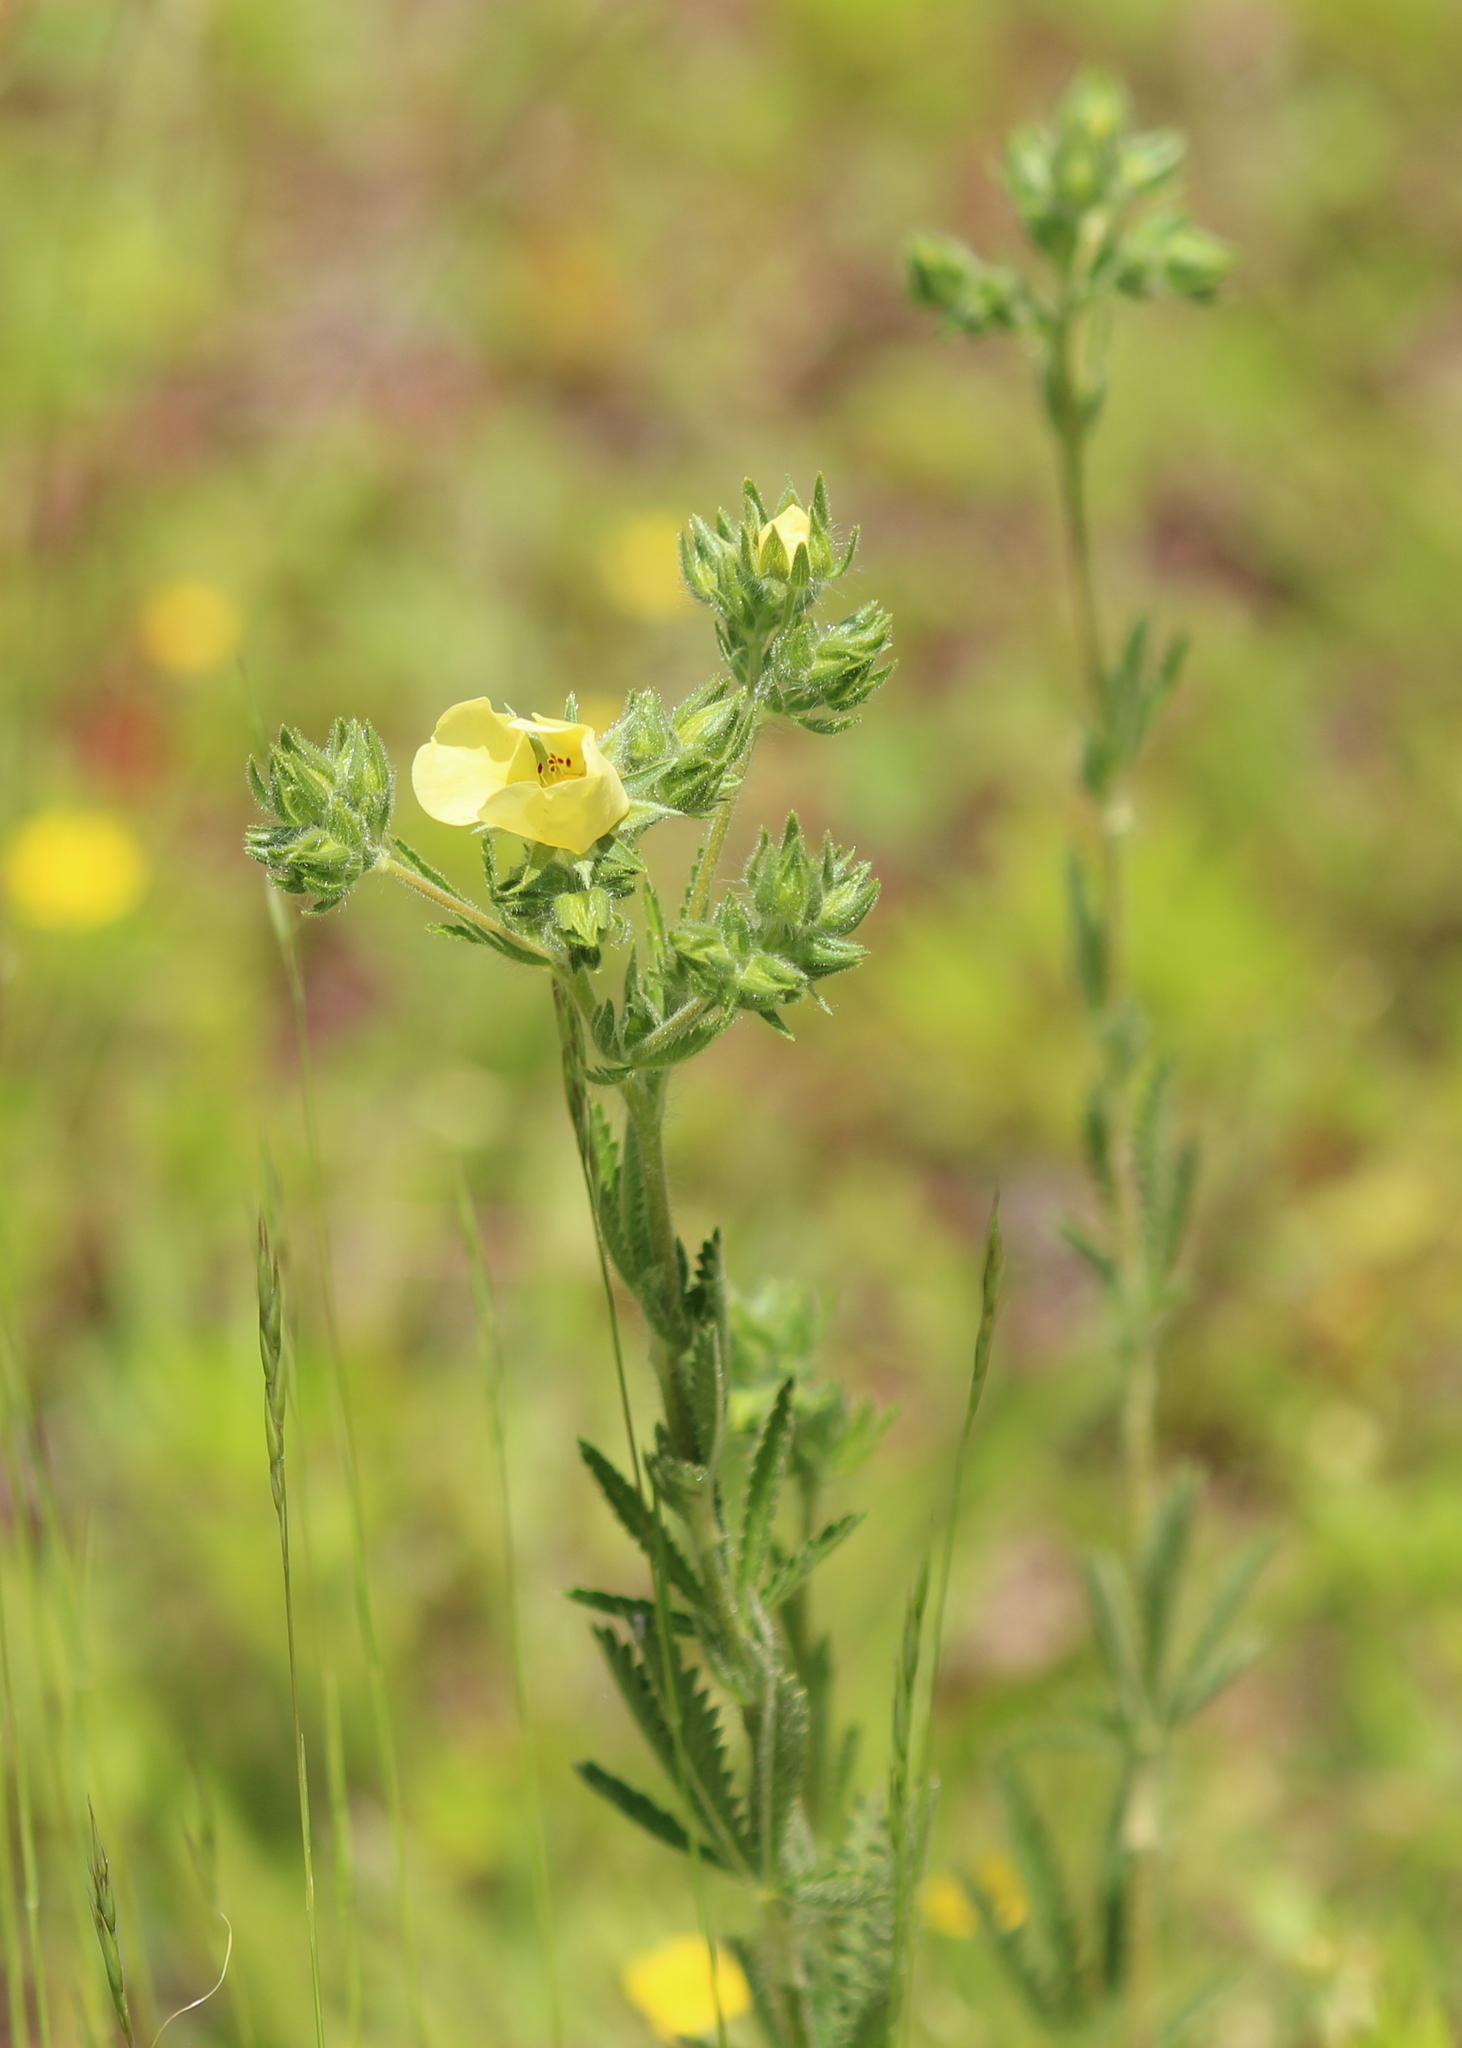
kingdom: Plantae
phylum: Tracheophyta
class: Magnoliopsida
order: Rosales
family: Rosaceae
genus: Potentilla
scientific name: Potentilla recta
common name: Sulphur cinquefoil
